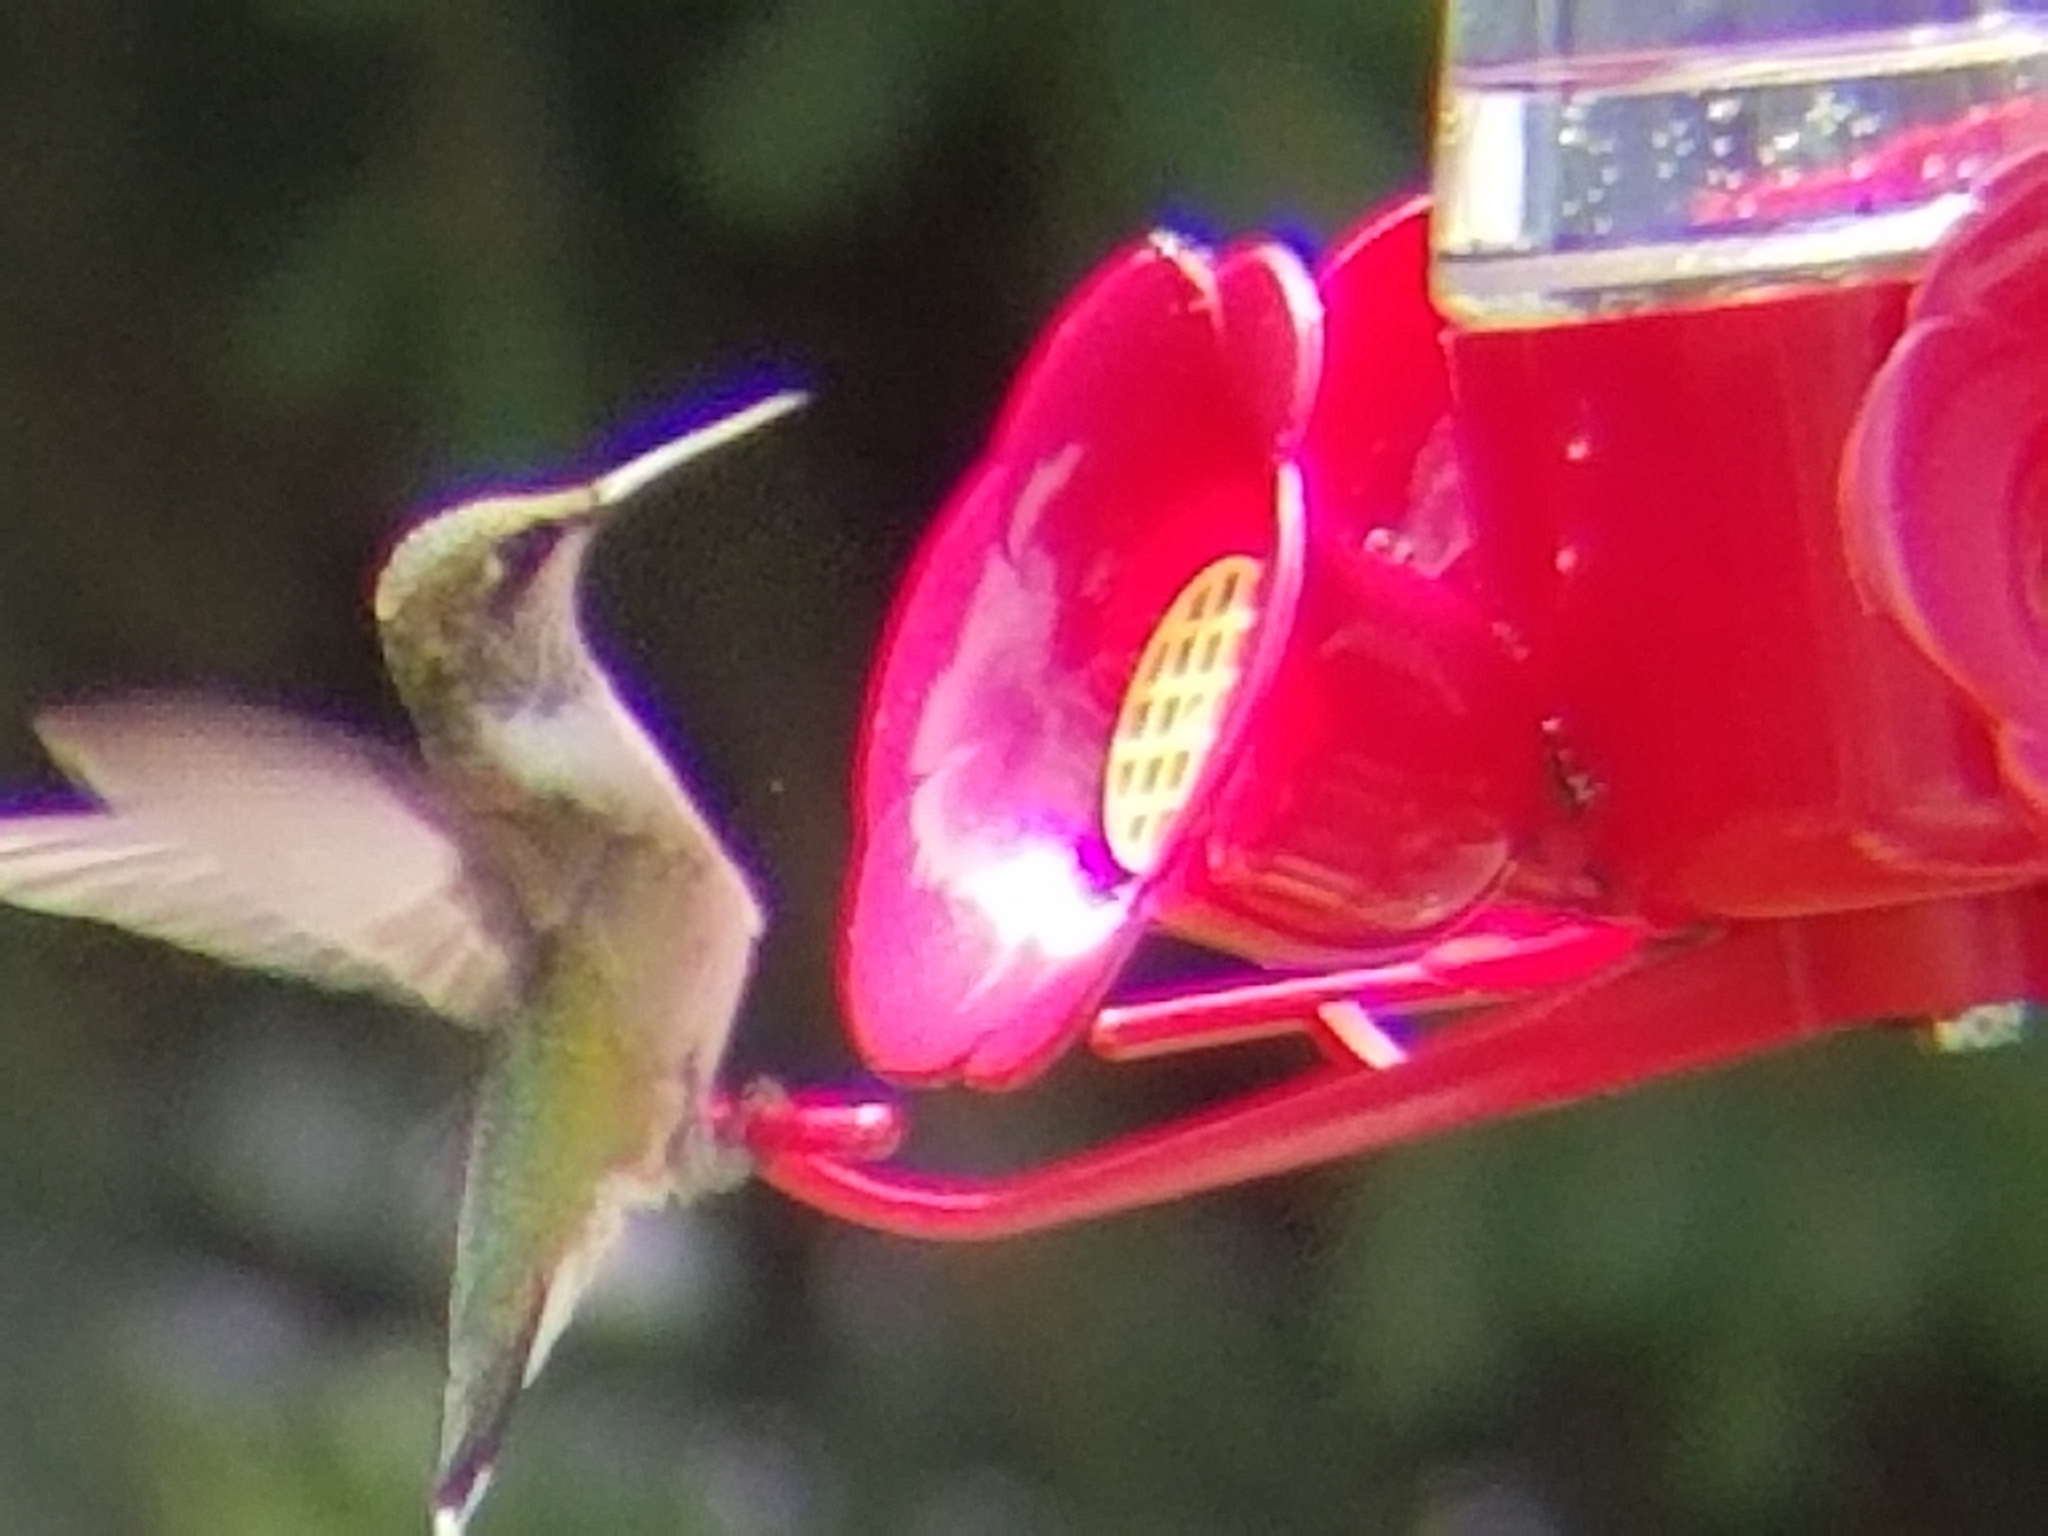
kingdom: Animalia
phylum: Chordata
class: Aves
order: Apodiformes
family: Trochilidae
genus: Archilochus
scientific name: Archilochus colubris
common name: Ruby-throated hummingbird
